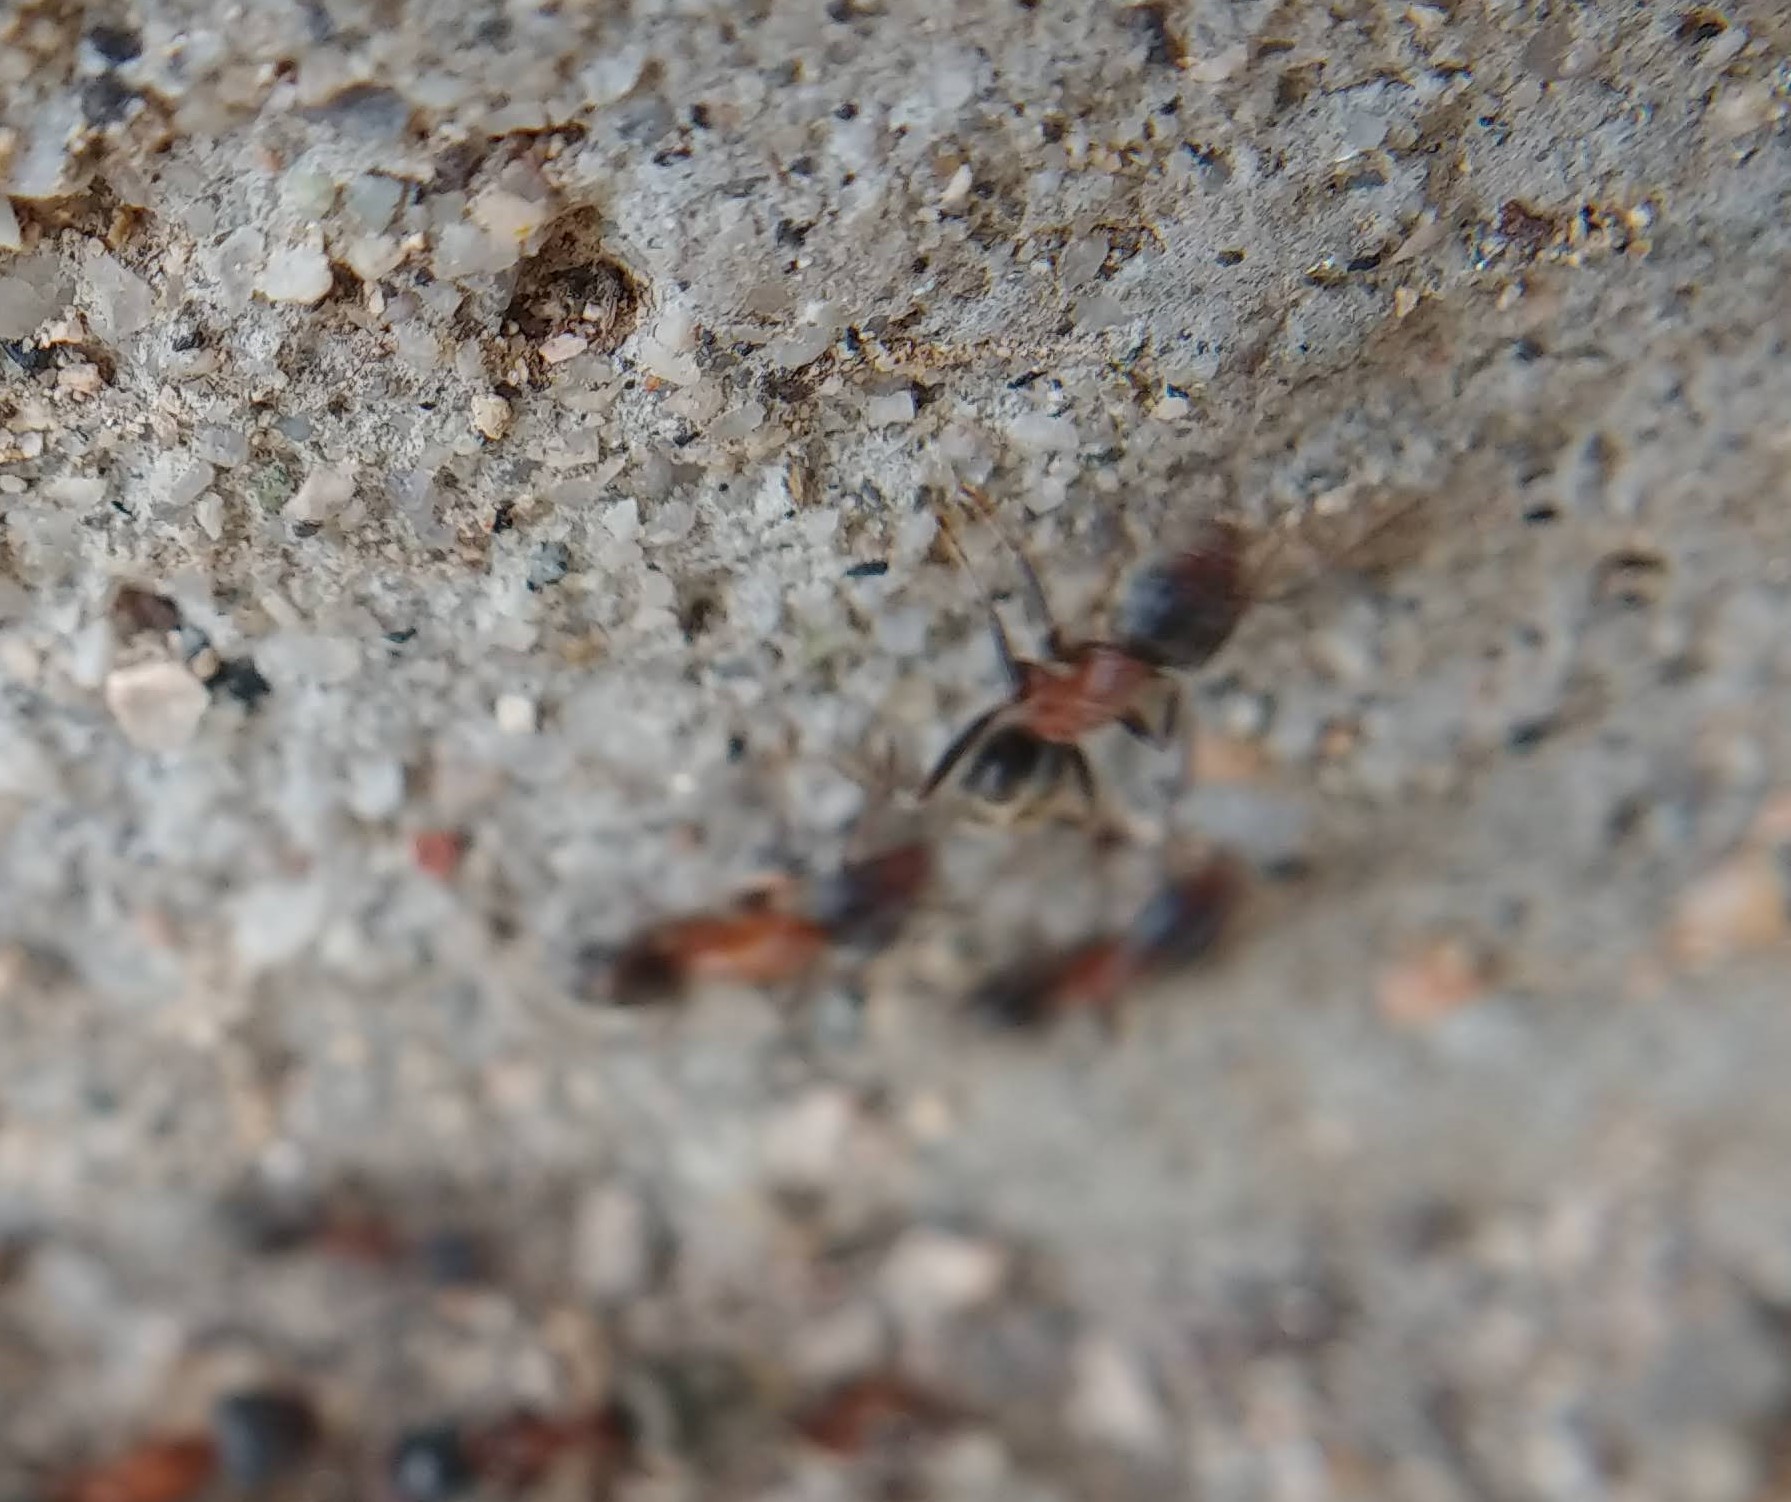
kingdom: Animalia
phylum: Arthropoda
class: Insecta
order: Hymenoptera
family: Formicidae
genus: Liometopum
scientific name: Liometopum occidentale
